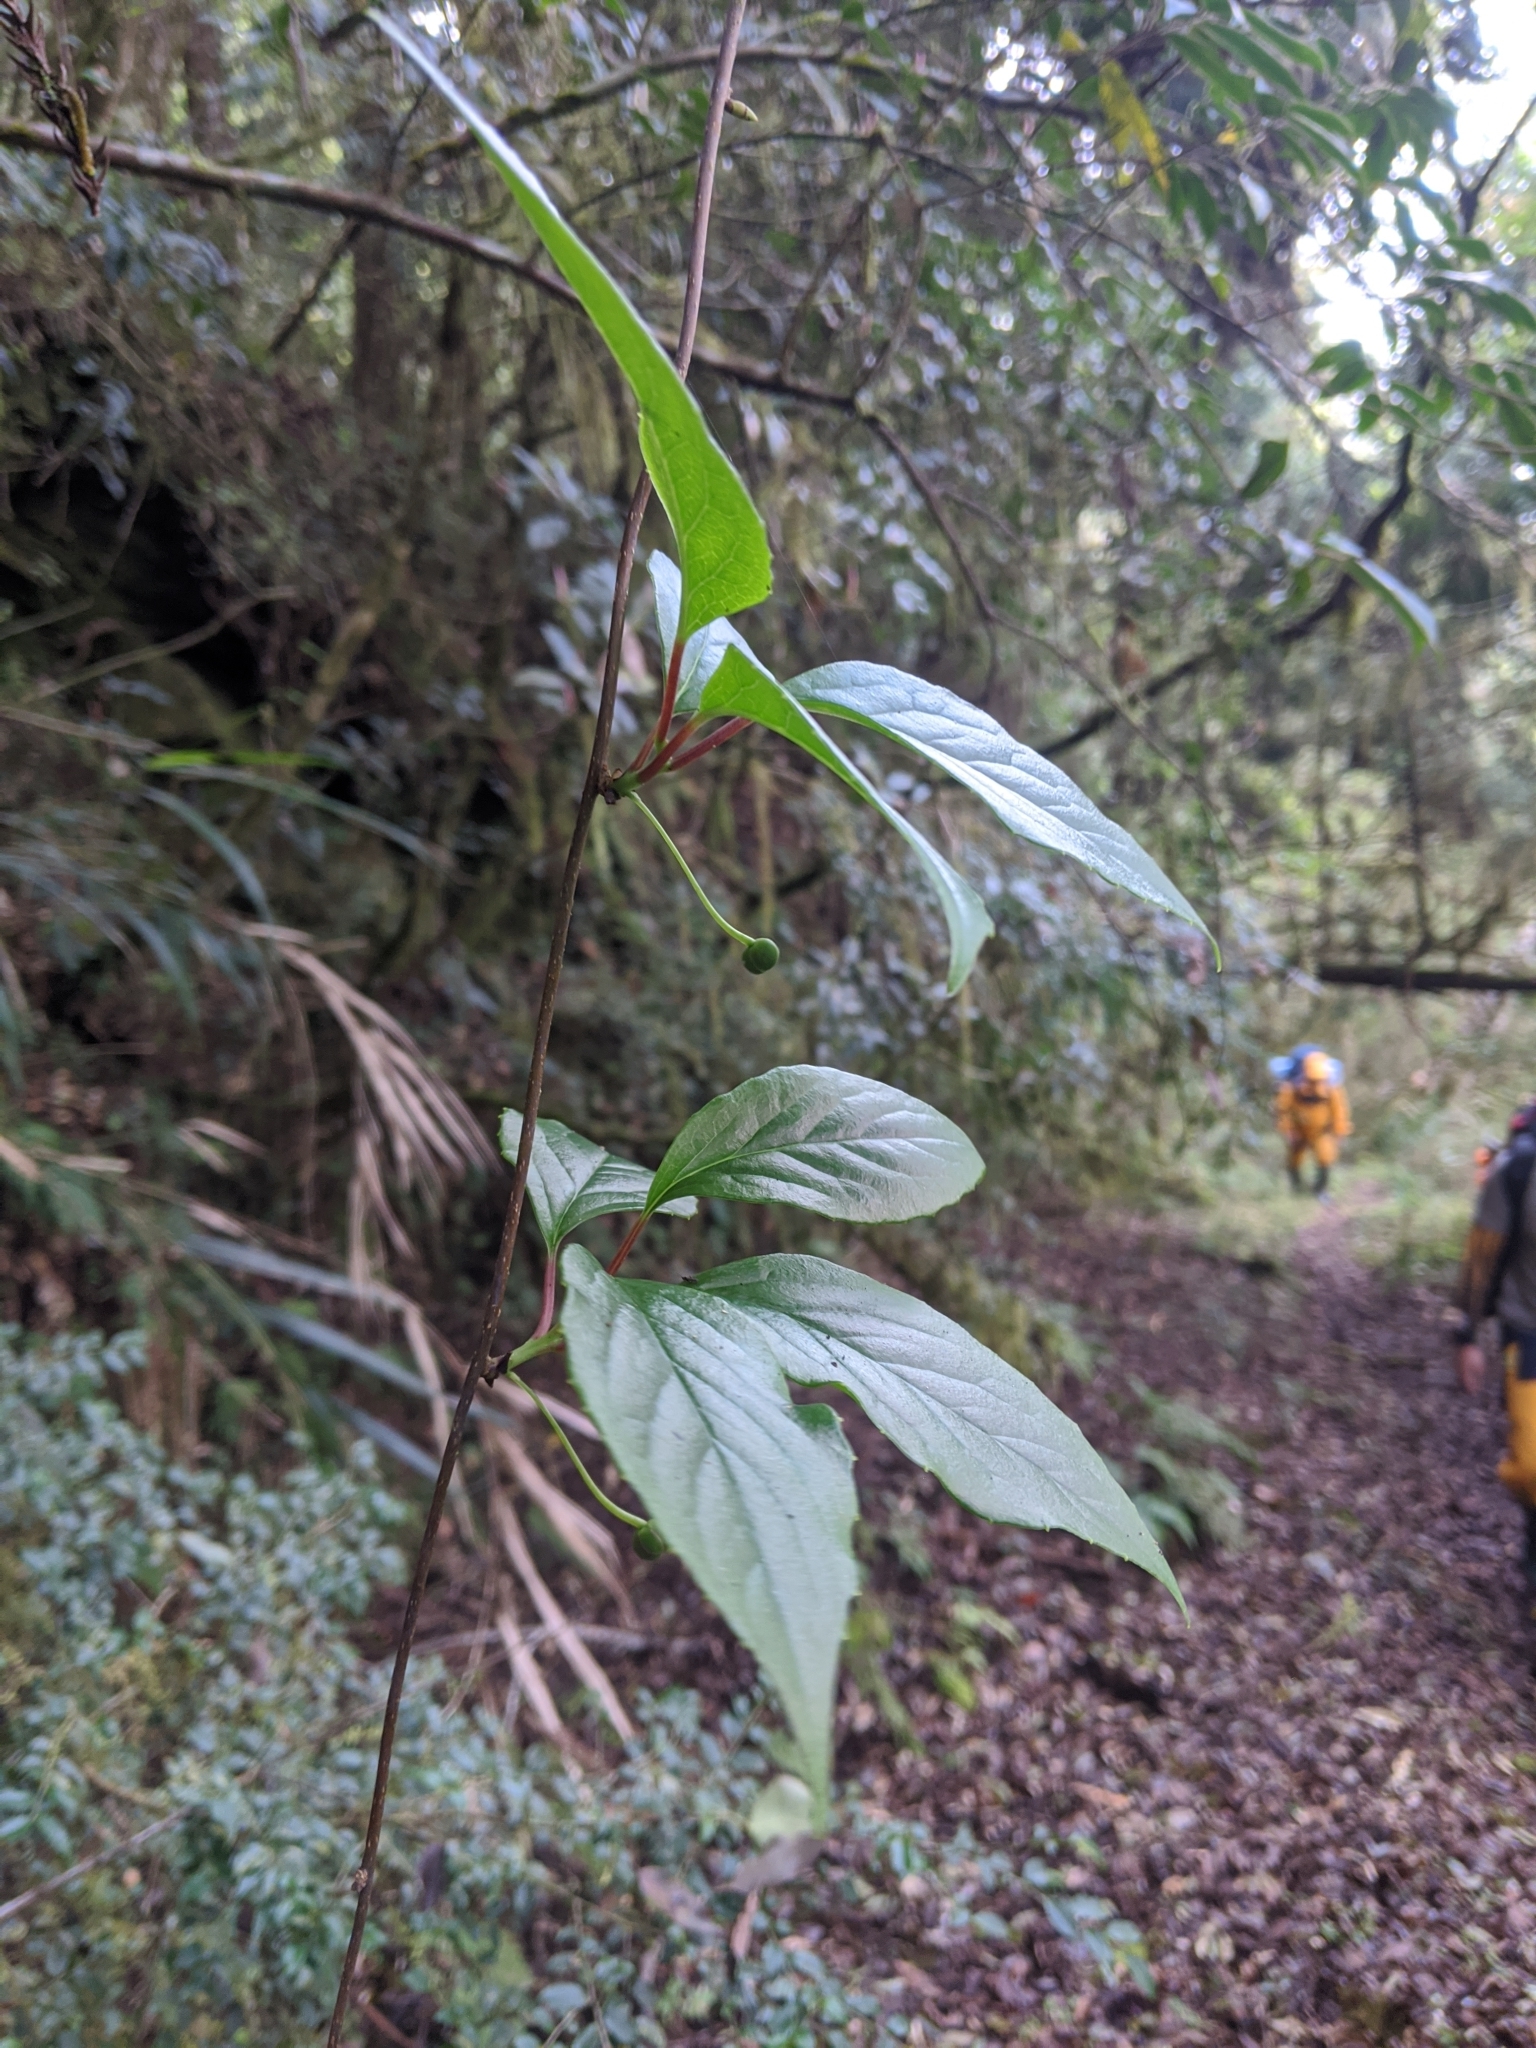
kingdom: Plantae
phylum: Tracheophyta
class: Magnoliopsida
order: Austrobaileyales
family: Schisandraceae
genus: Schisandra
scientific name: Schisandra arisanensis
